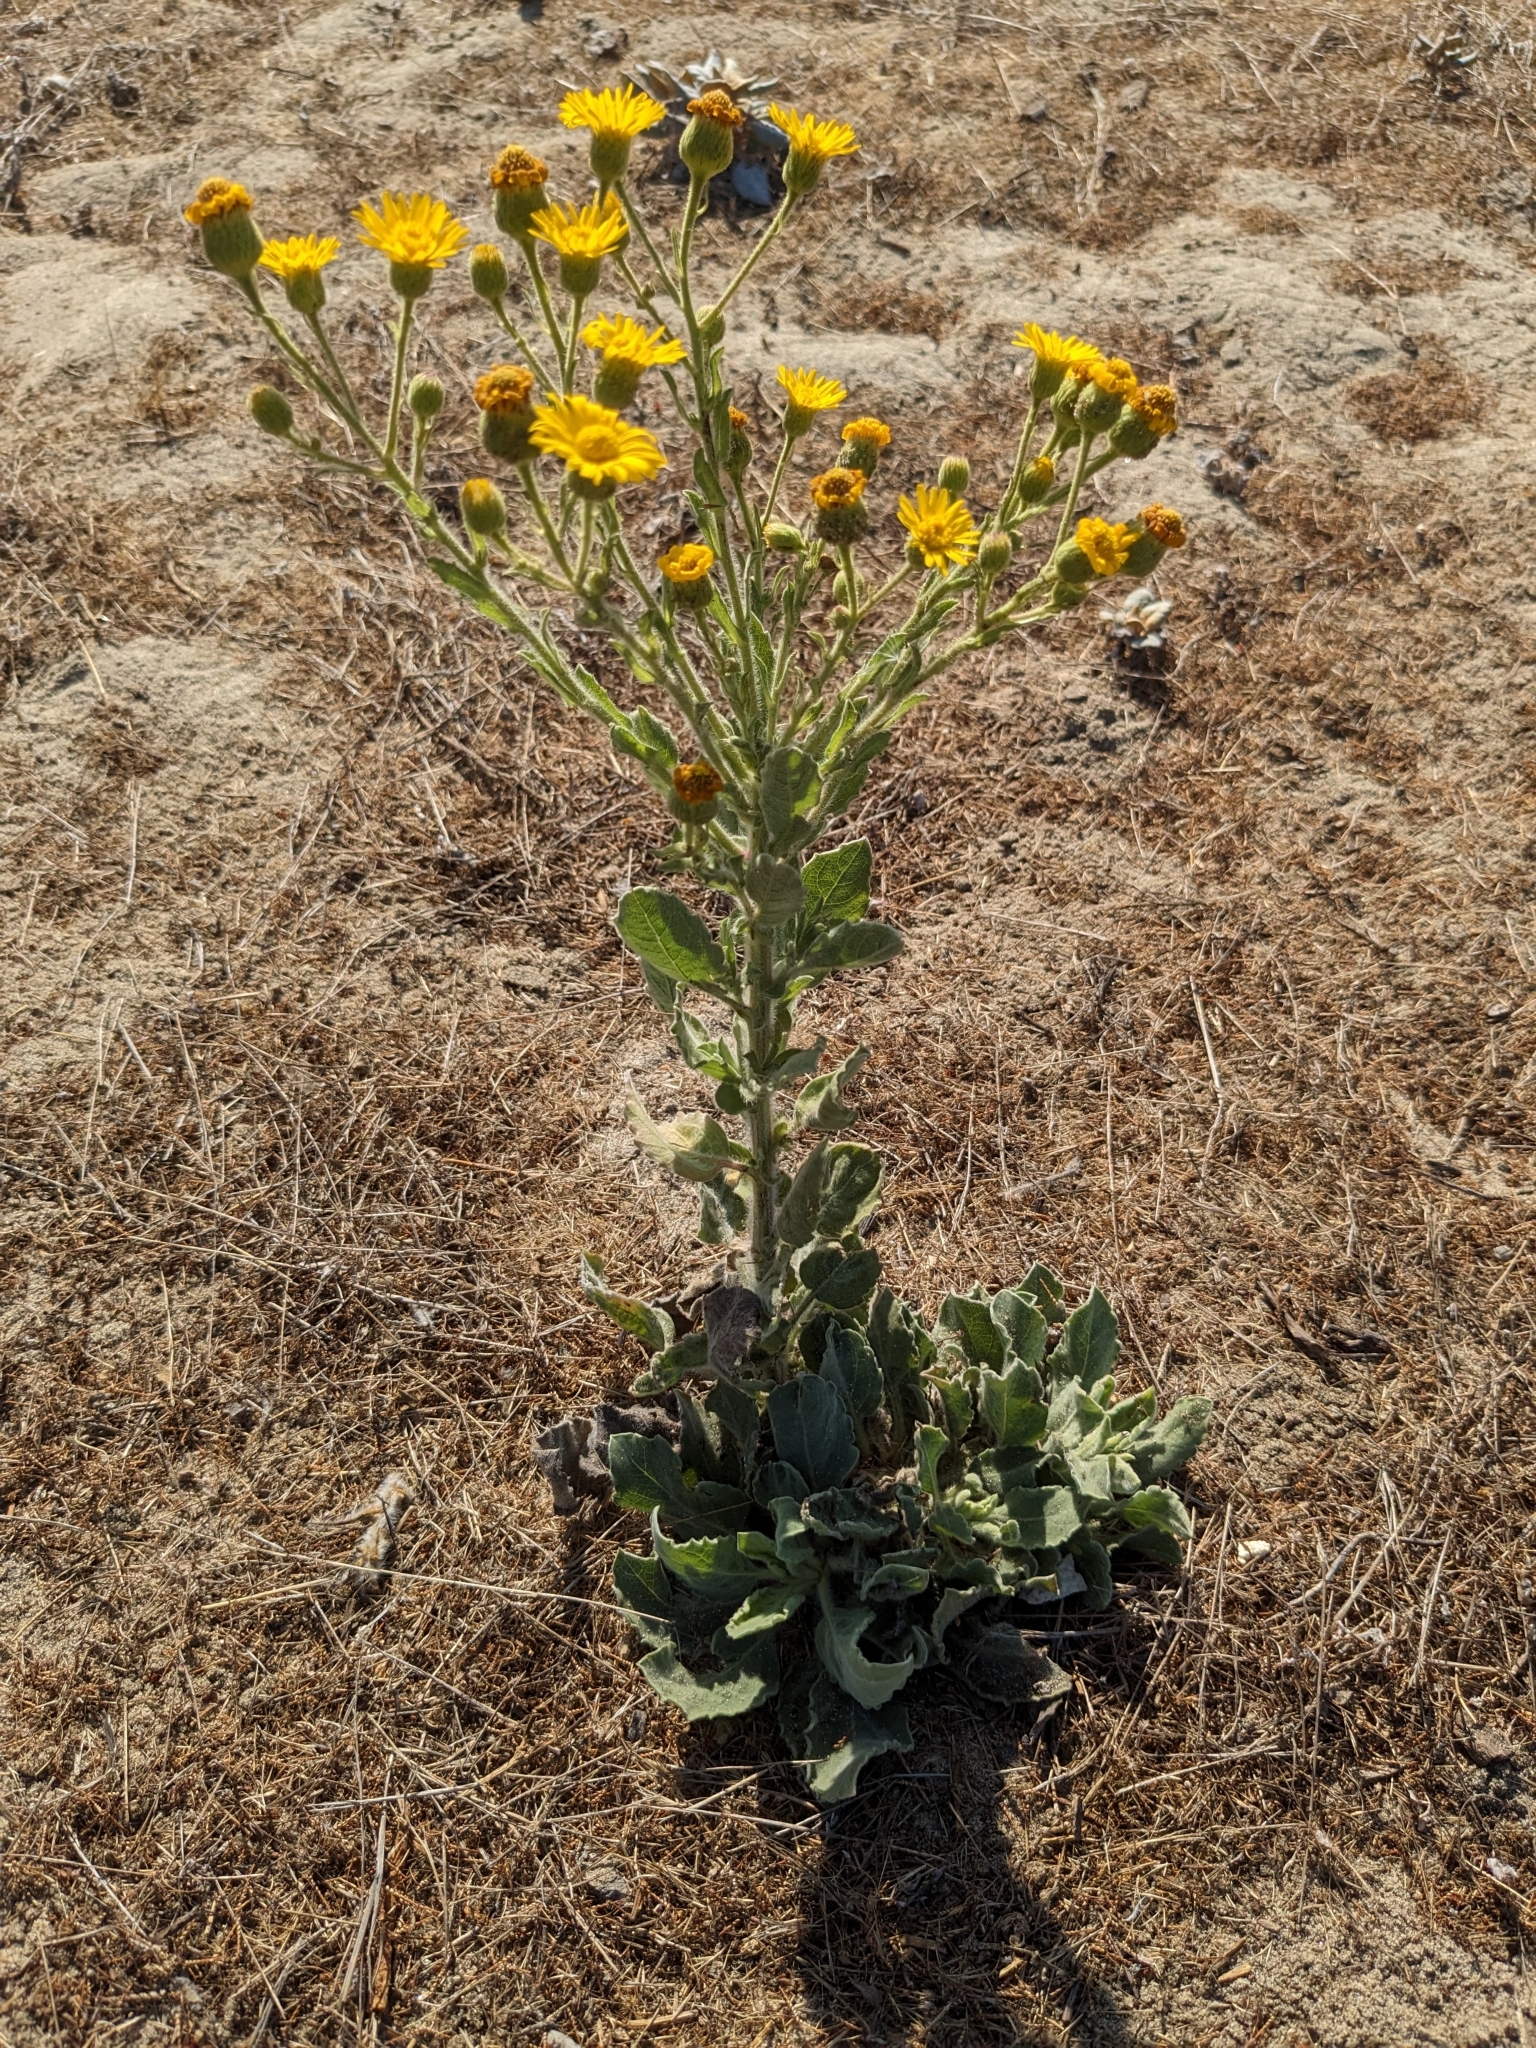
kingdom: Plantae
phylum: Tracheophyta
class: Magnoliopsida
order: Asterales
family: Asteraceae
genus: Heterotheca
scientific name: Heterotheca grandiflora
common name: Telegraphweed
